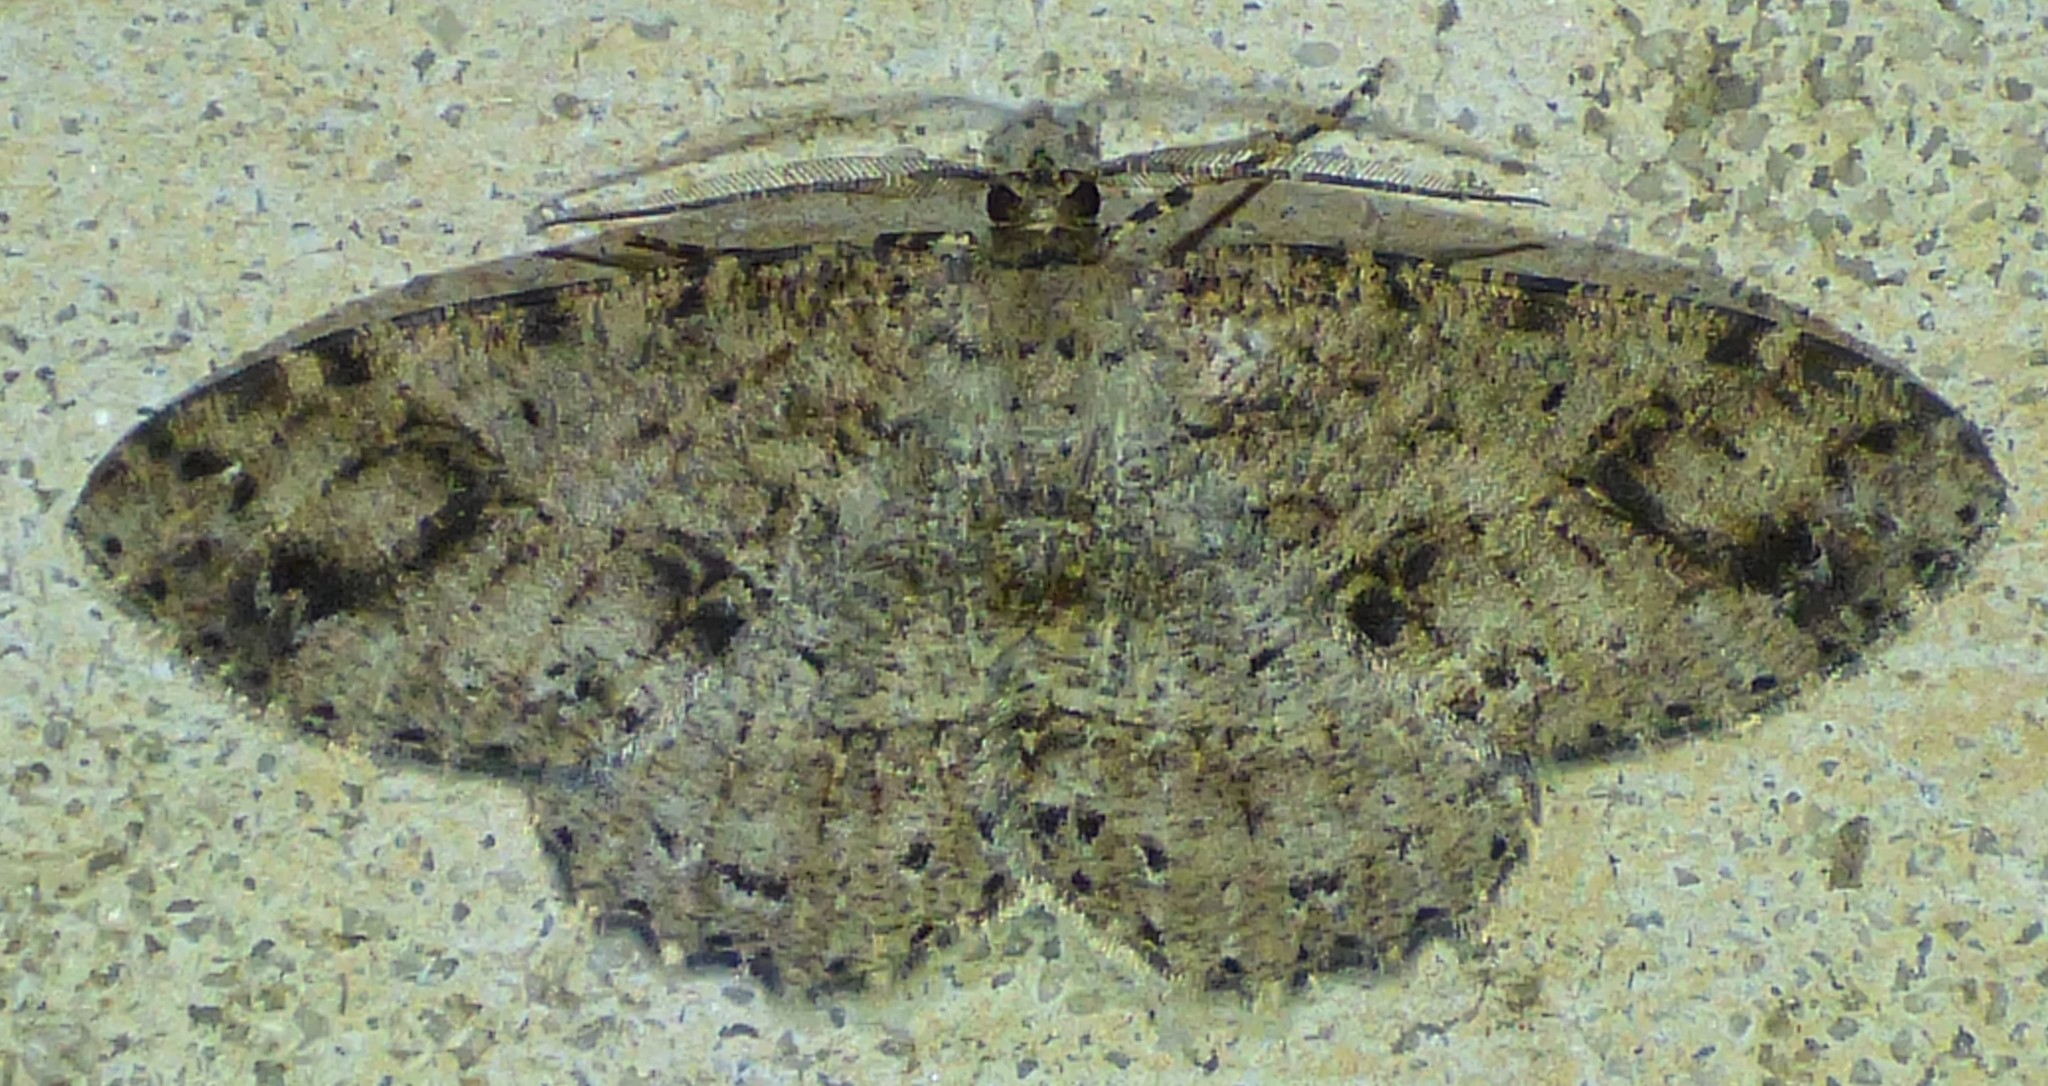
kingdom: Animalia
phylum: Arthropoda
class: Insecta
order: Lepidoptera
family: Geometridae
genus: Melanolophia
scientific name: Melanolophia canadaria
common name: Canadian melanolophia
